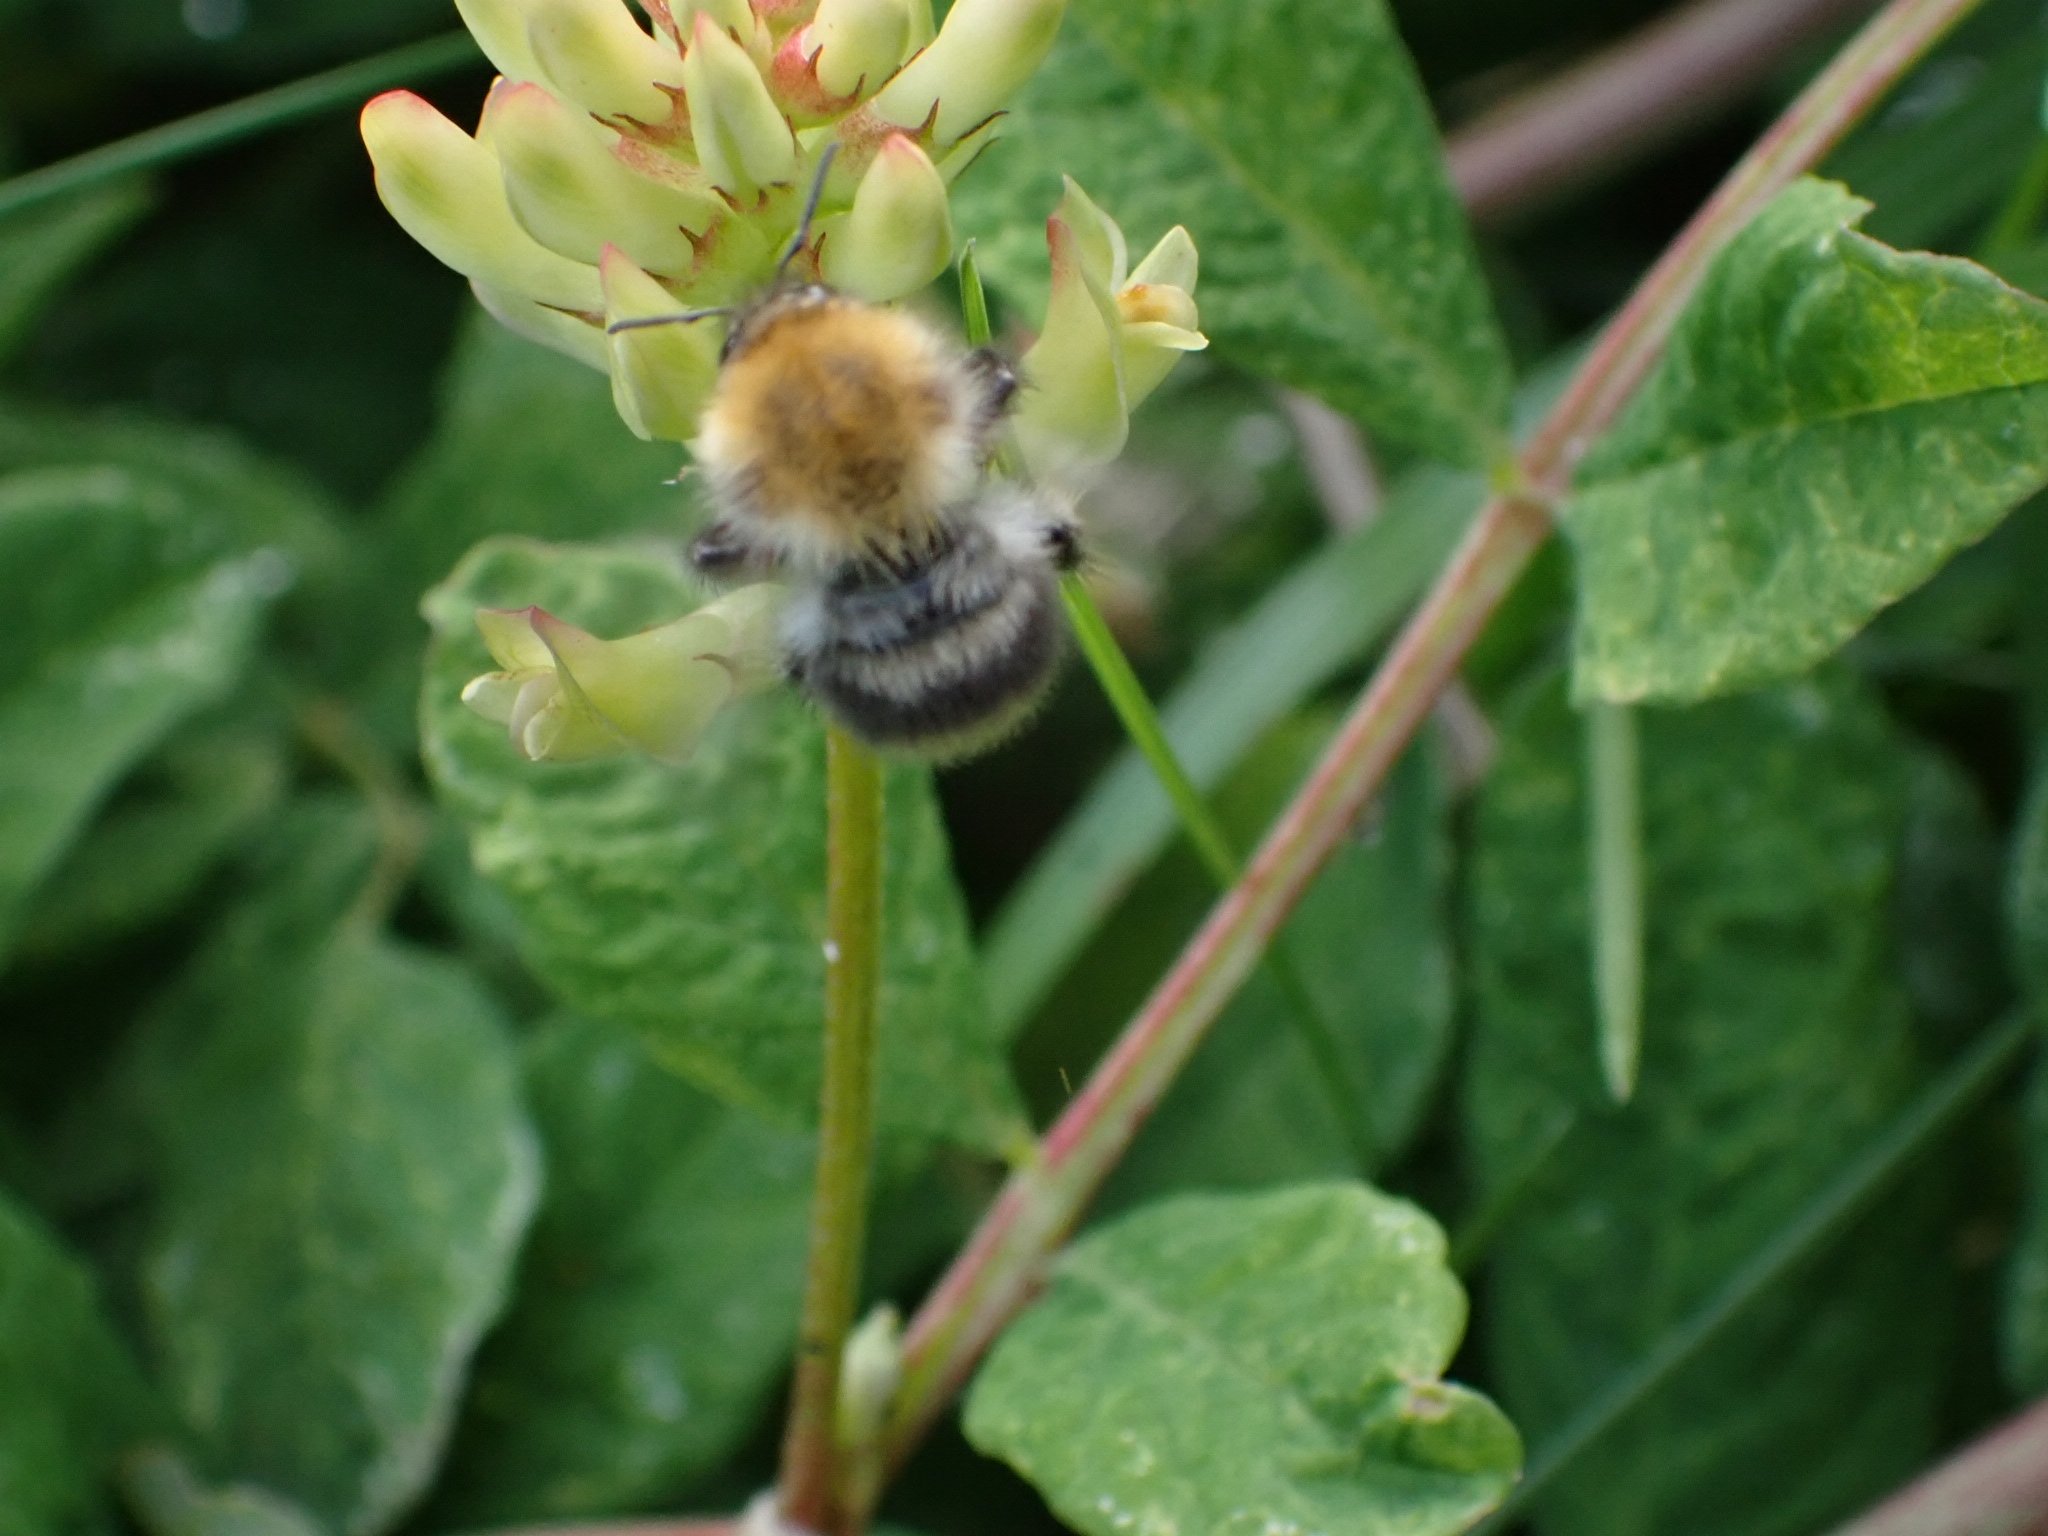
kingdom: Animalia
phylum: Arthropoda
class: Insecta
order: Hymenoptera
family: Apidae
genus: Bombus
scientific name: Bombus pascuorum
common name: Common carder bee
